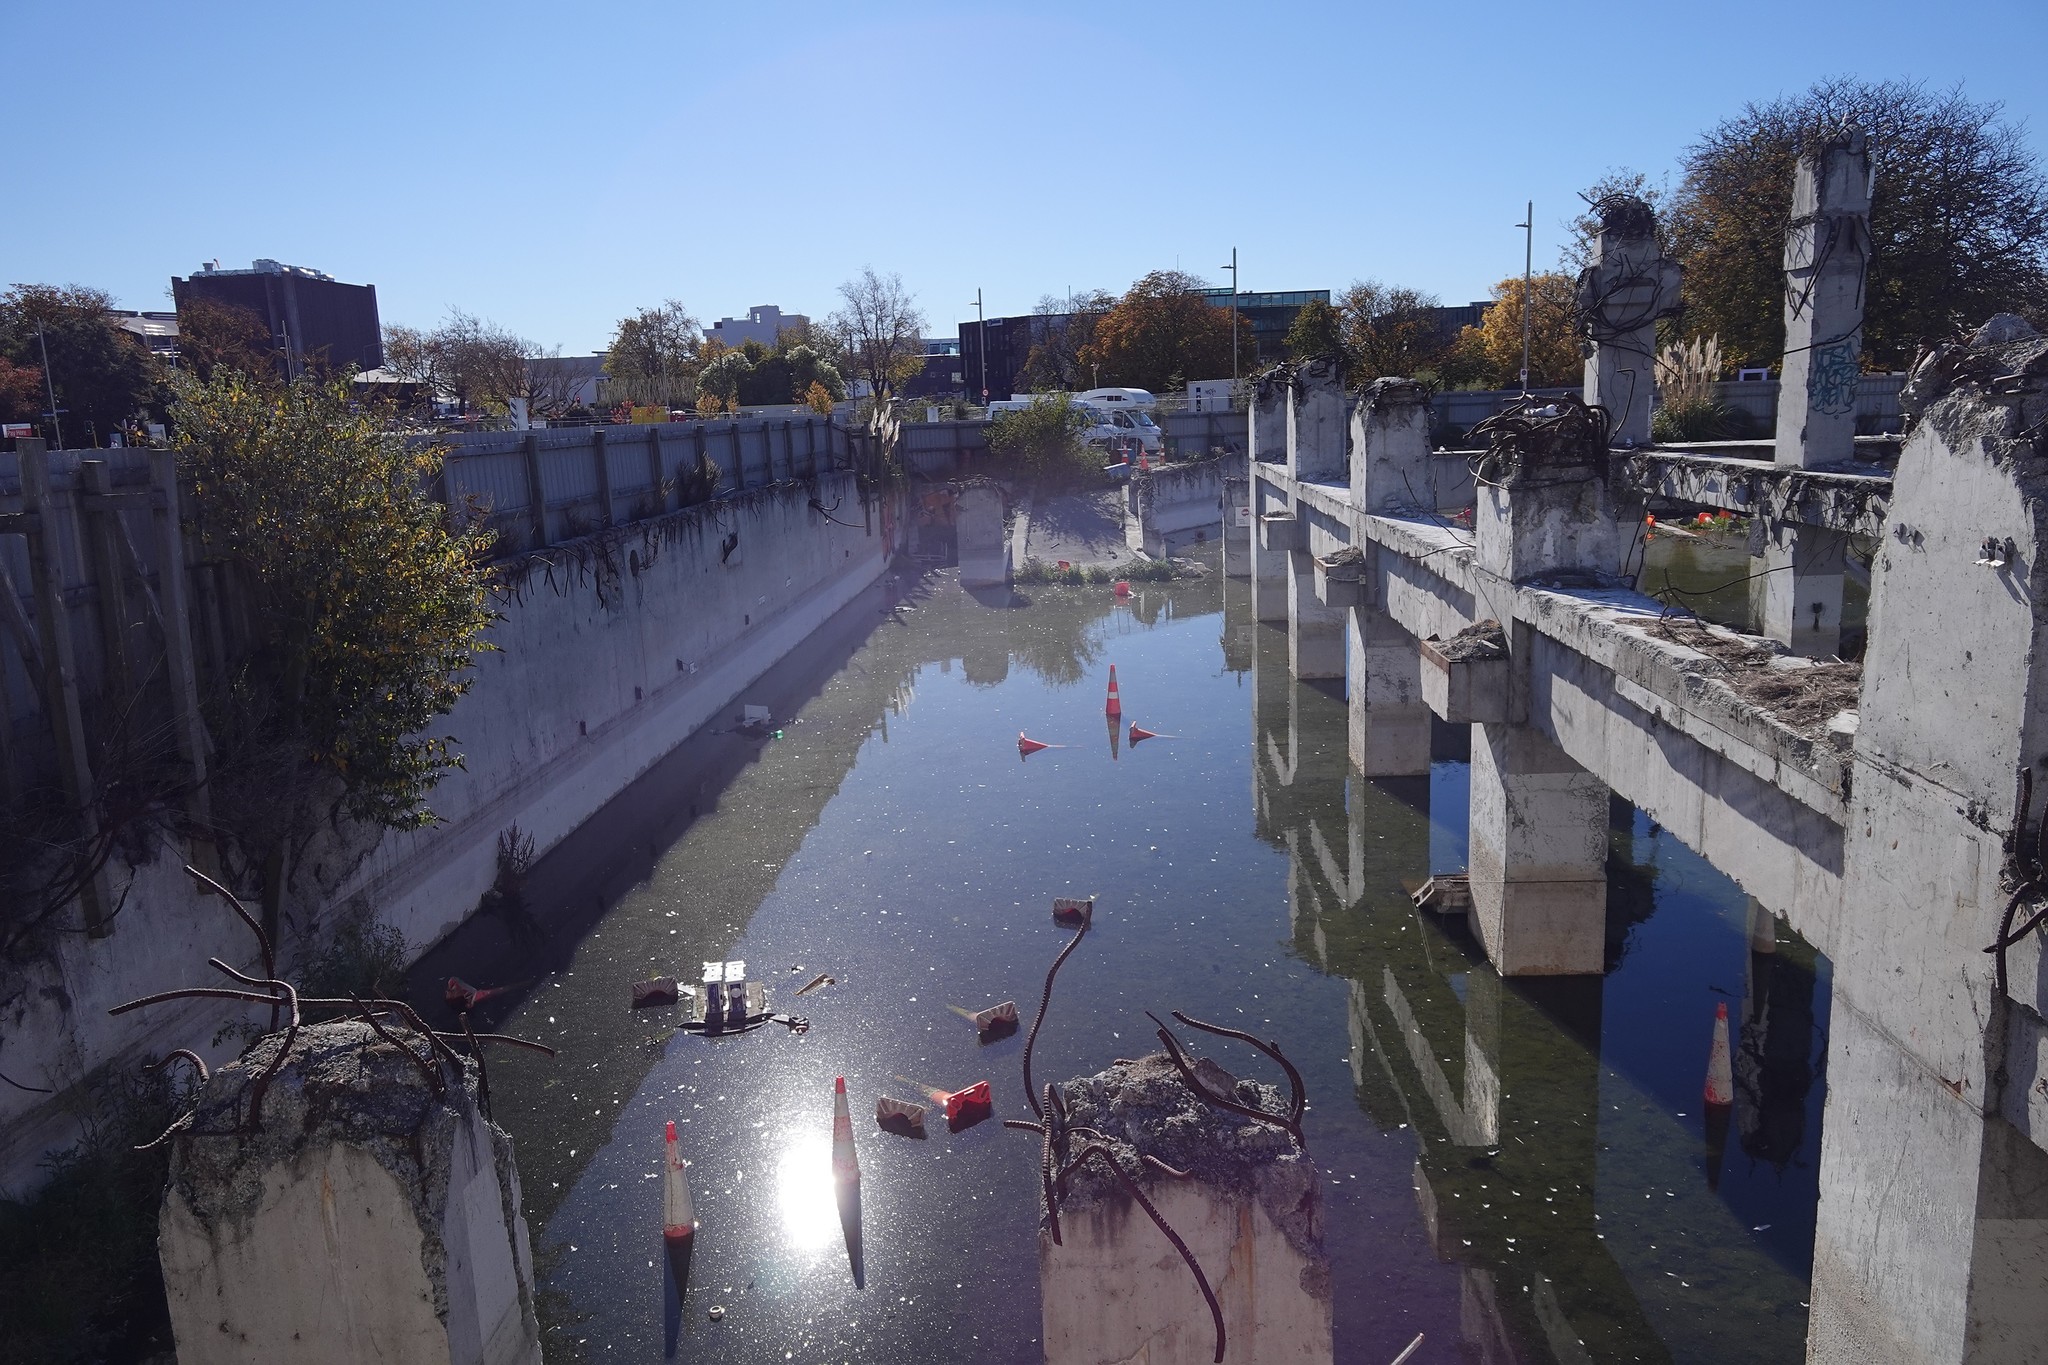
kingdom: Plantae
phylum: Tracheophyta
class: Magnoliopsida
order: Lamiales
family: Scrophulariaceae
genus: Buddleja
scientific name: Buddleja davidii
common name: Butterfly-bush
